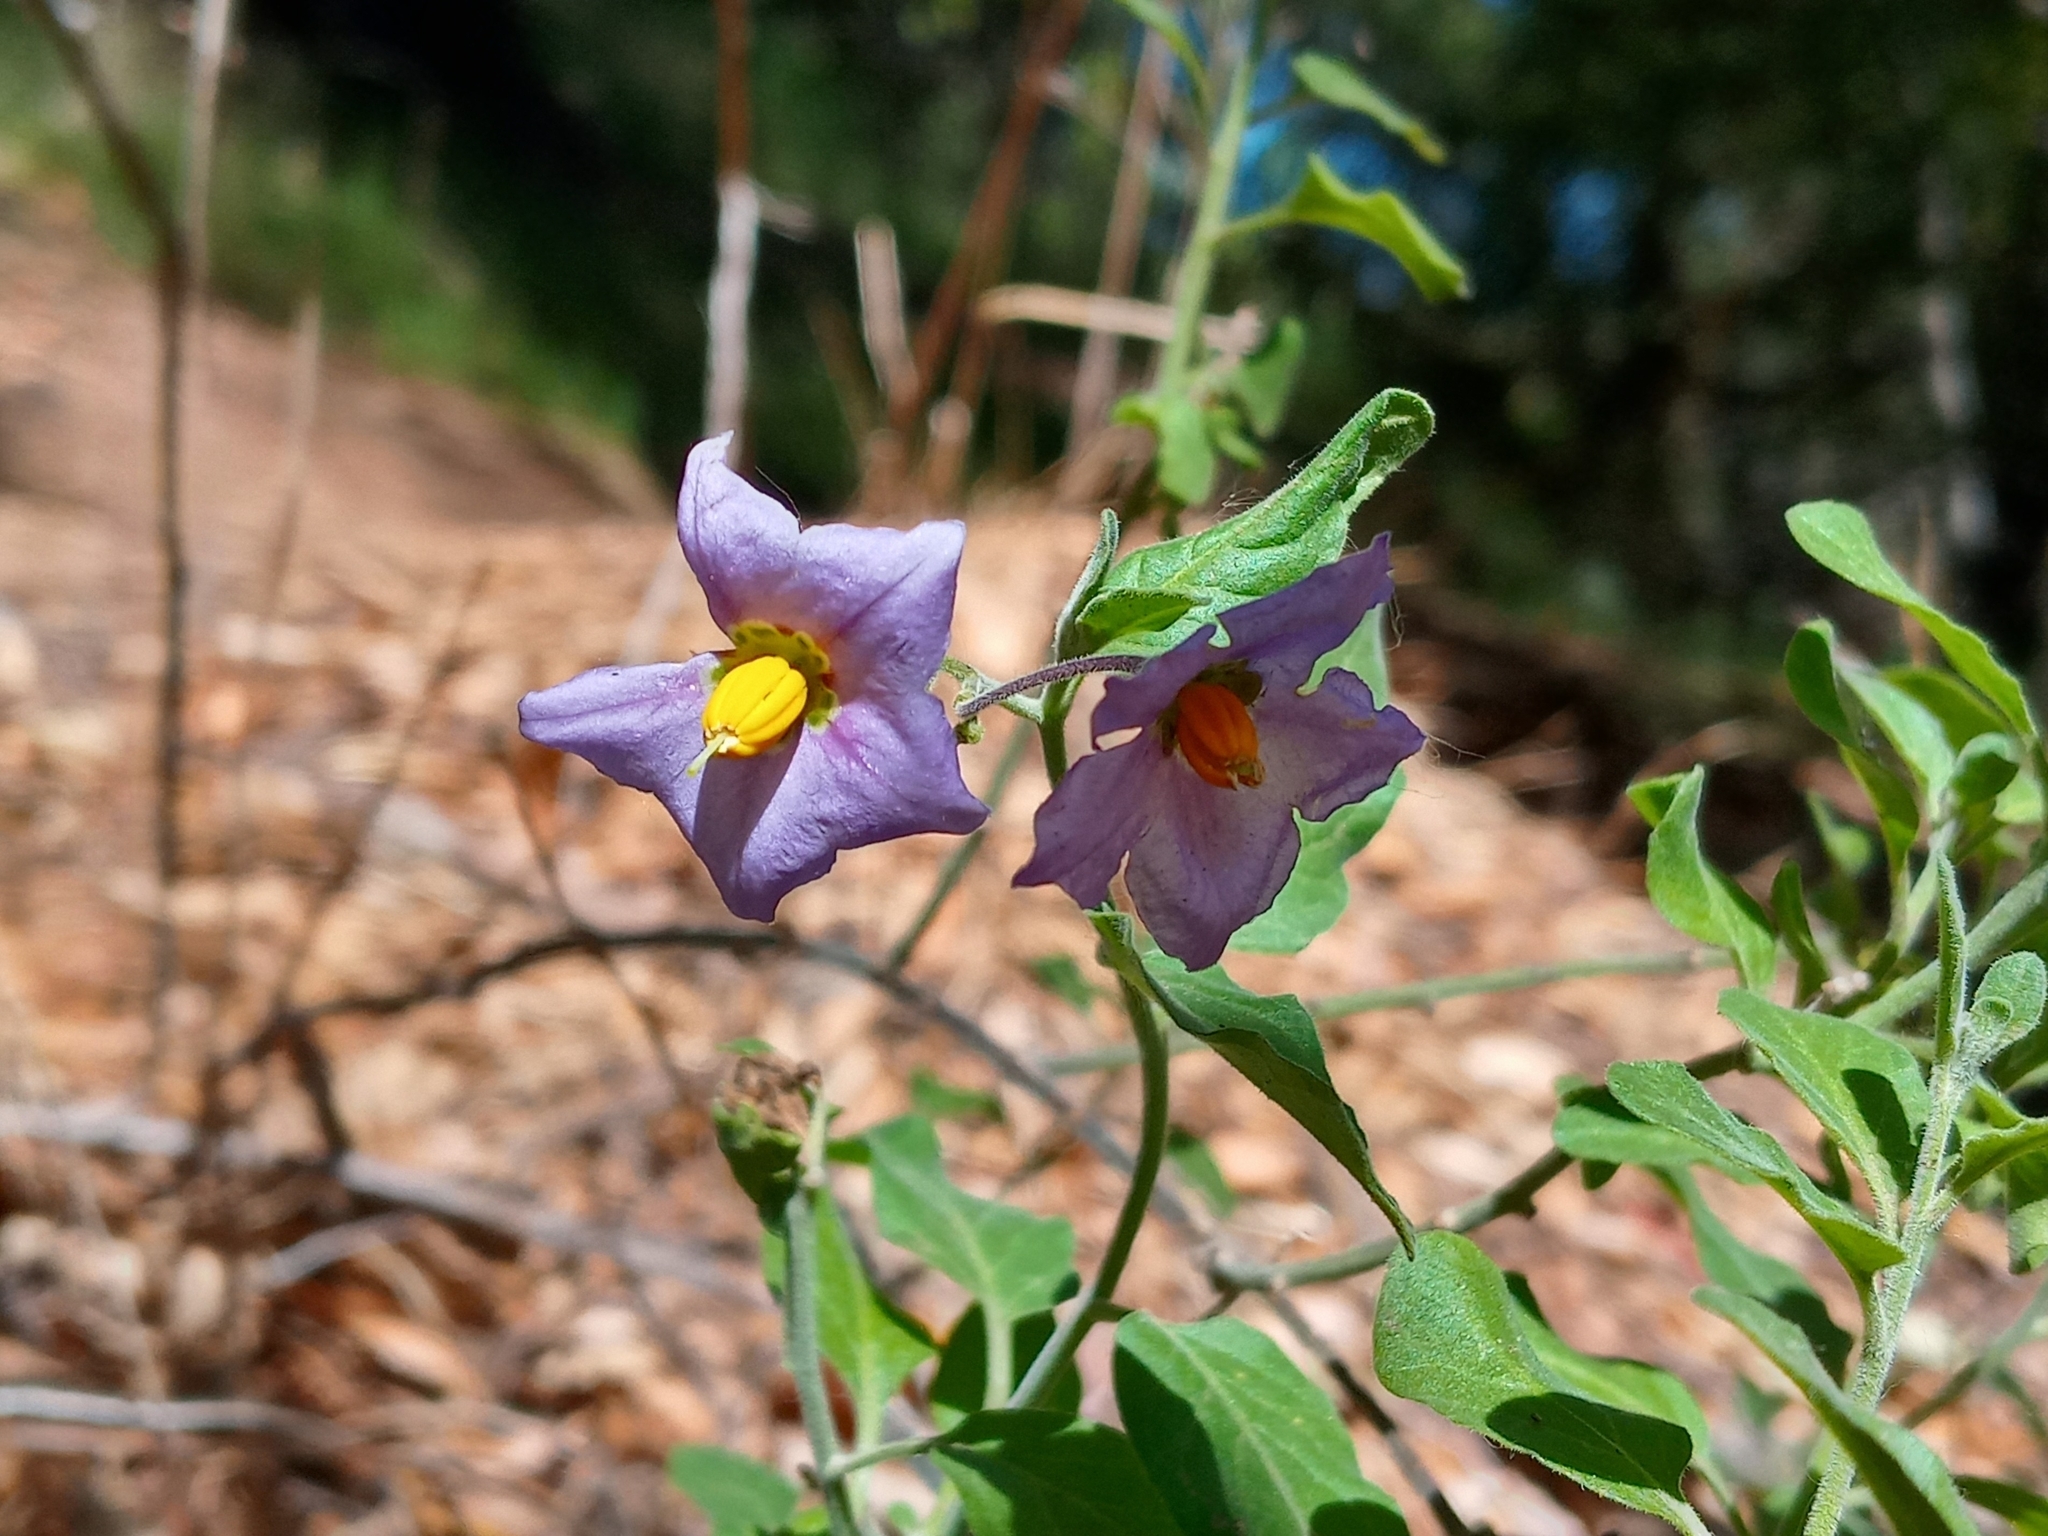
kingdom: Plantae
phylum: Tracheophyta
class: Magnoliopsida
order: Solanales
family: Solanaceae
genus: Solanum
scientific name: Solanum umbelliferum
